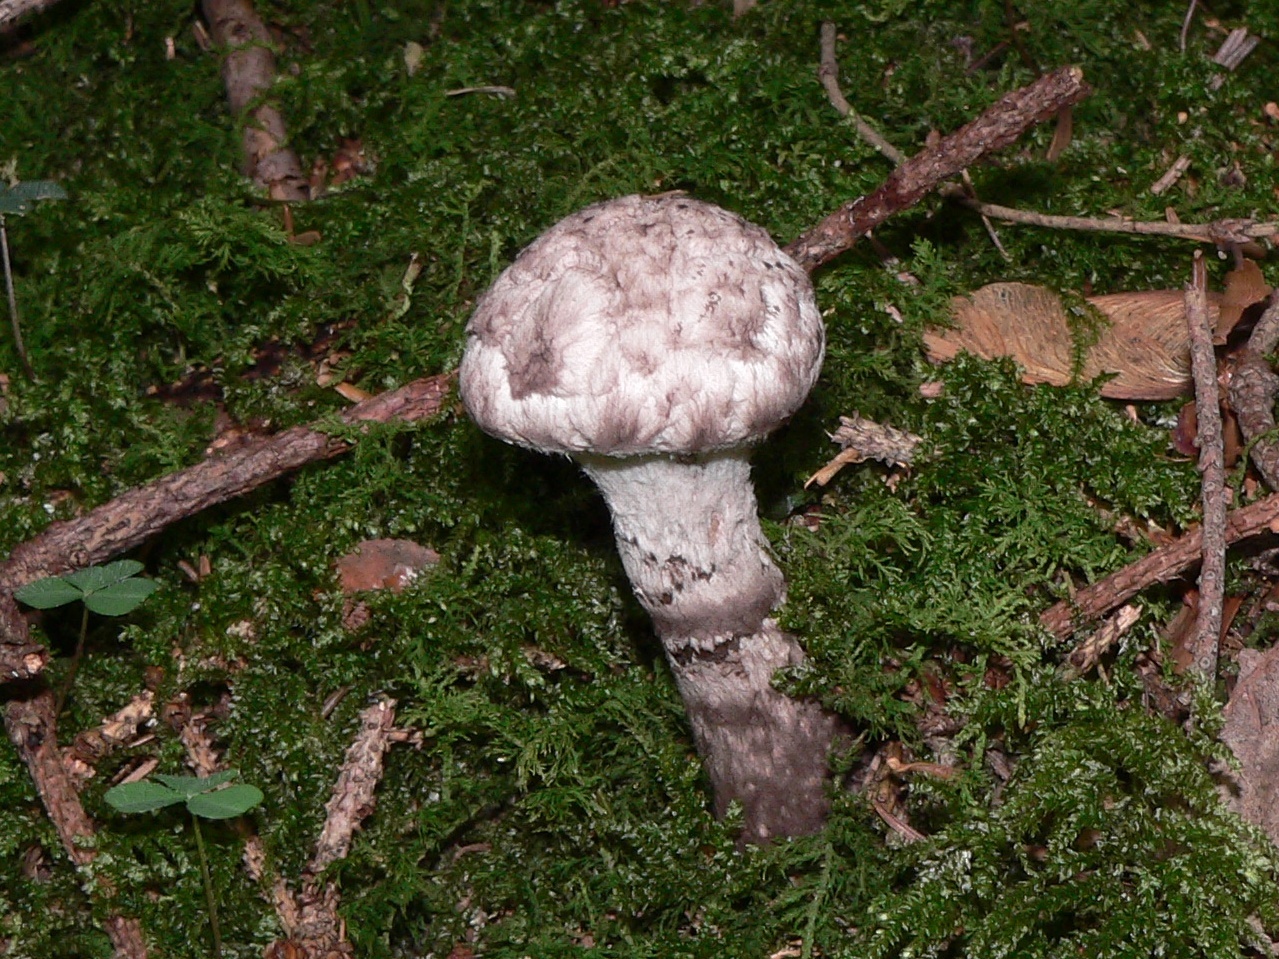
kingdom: Fungi
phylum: Basidiomycota
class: Agaricomycetes
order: Boletales
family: Boletaceae
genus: Strobilomyces
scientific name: Strobilomyces strobilaceus
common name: Old man of the woods
